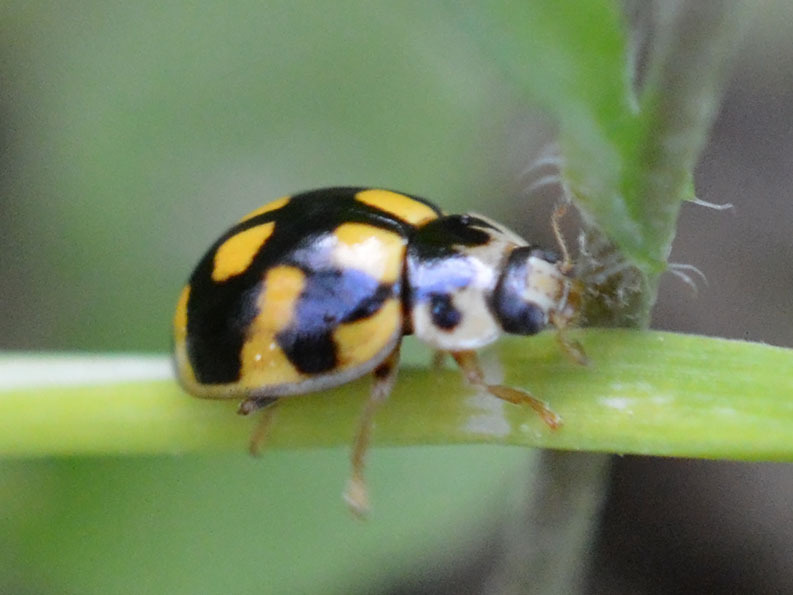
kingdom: Animalia
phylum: Arthropoda
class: Insecta
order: Coleoptera
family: Coccinellidae
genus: Propylaea
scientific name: Propylaea quatuordecimpunctata
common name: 14-spotted ladybird beetle
